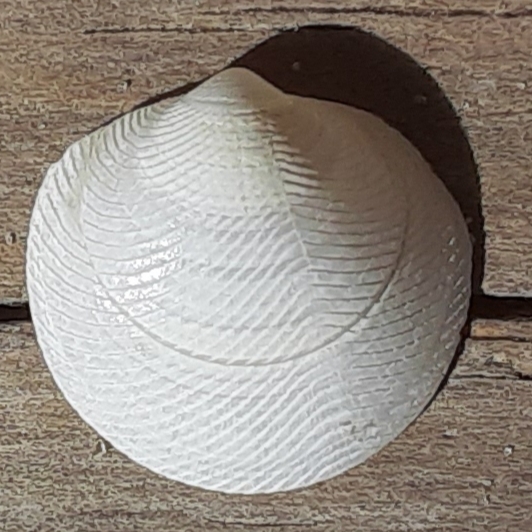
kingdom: Animalia
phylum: Mollusca
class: Bivalvia
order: Lucinida
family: Lucinidae
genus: Divalinga
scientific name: Divalinga quadrisulcata
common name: Cross-hatched lucine
